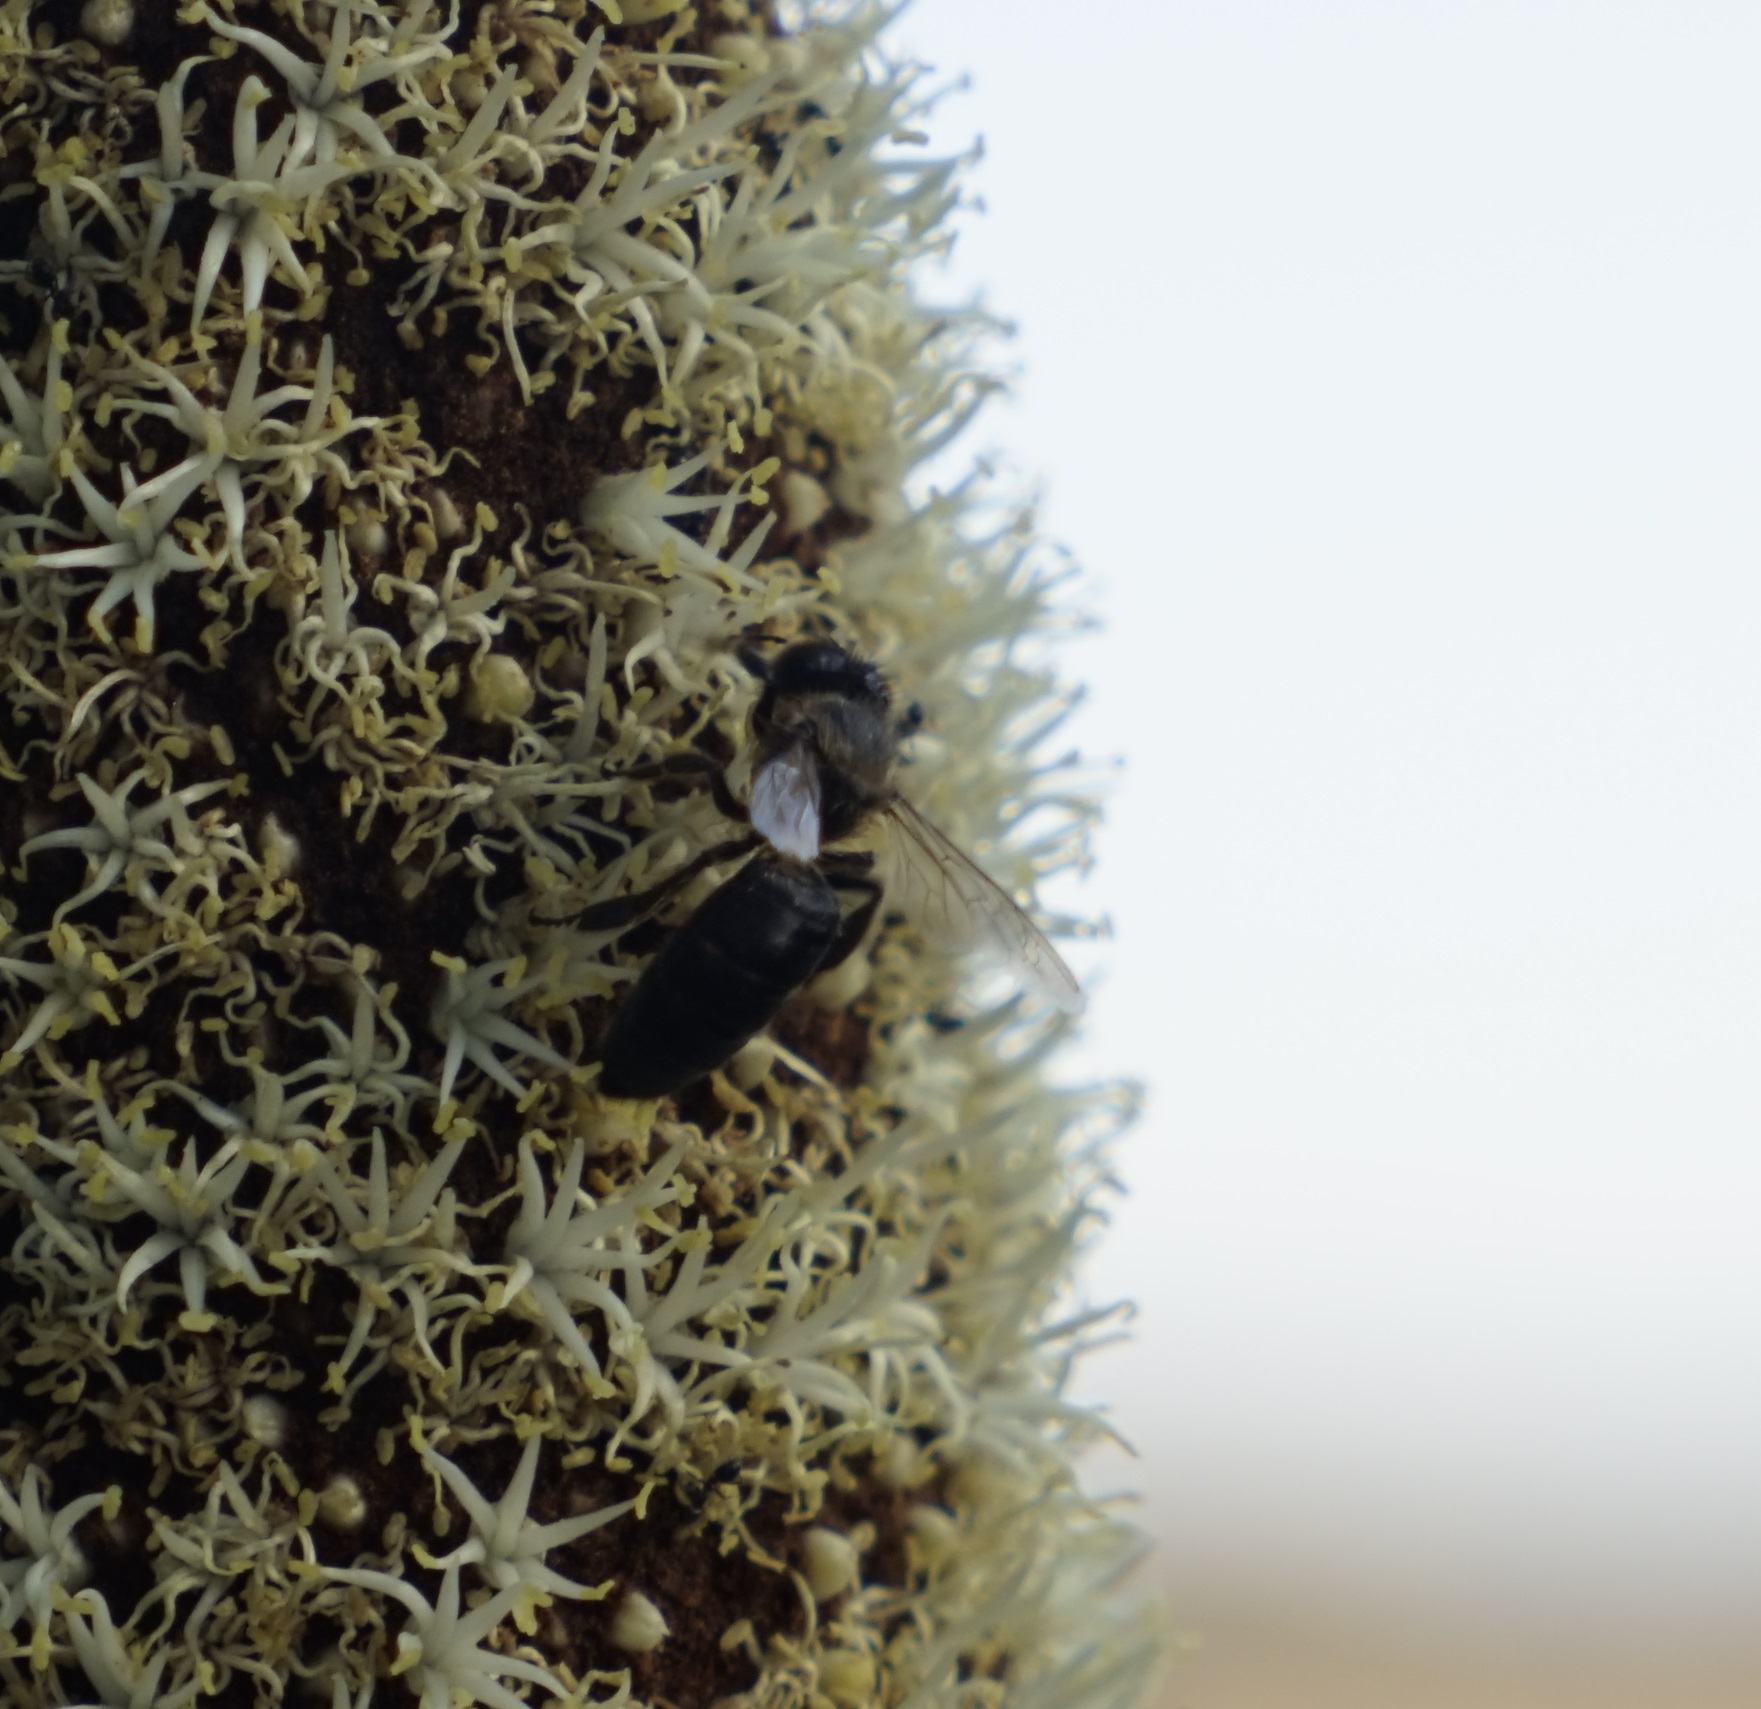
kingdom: Animalia
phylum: Arthropoda
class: Insecta
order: Hymenoptera
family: Apidae
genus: Apis
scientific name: Apis mellifera
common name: Honey bee
